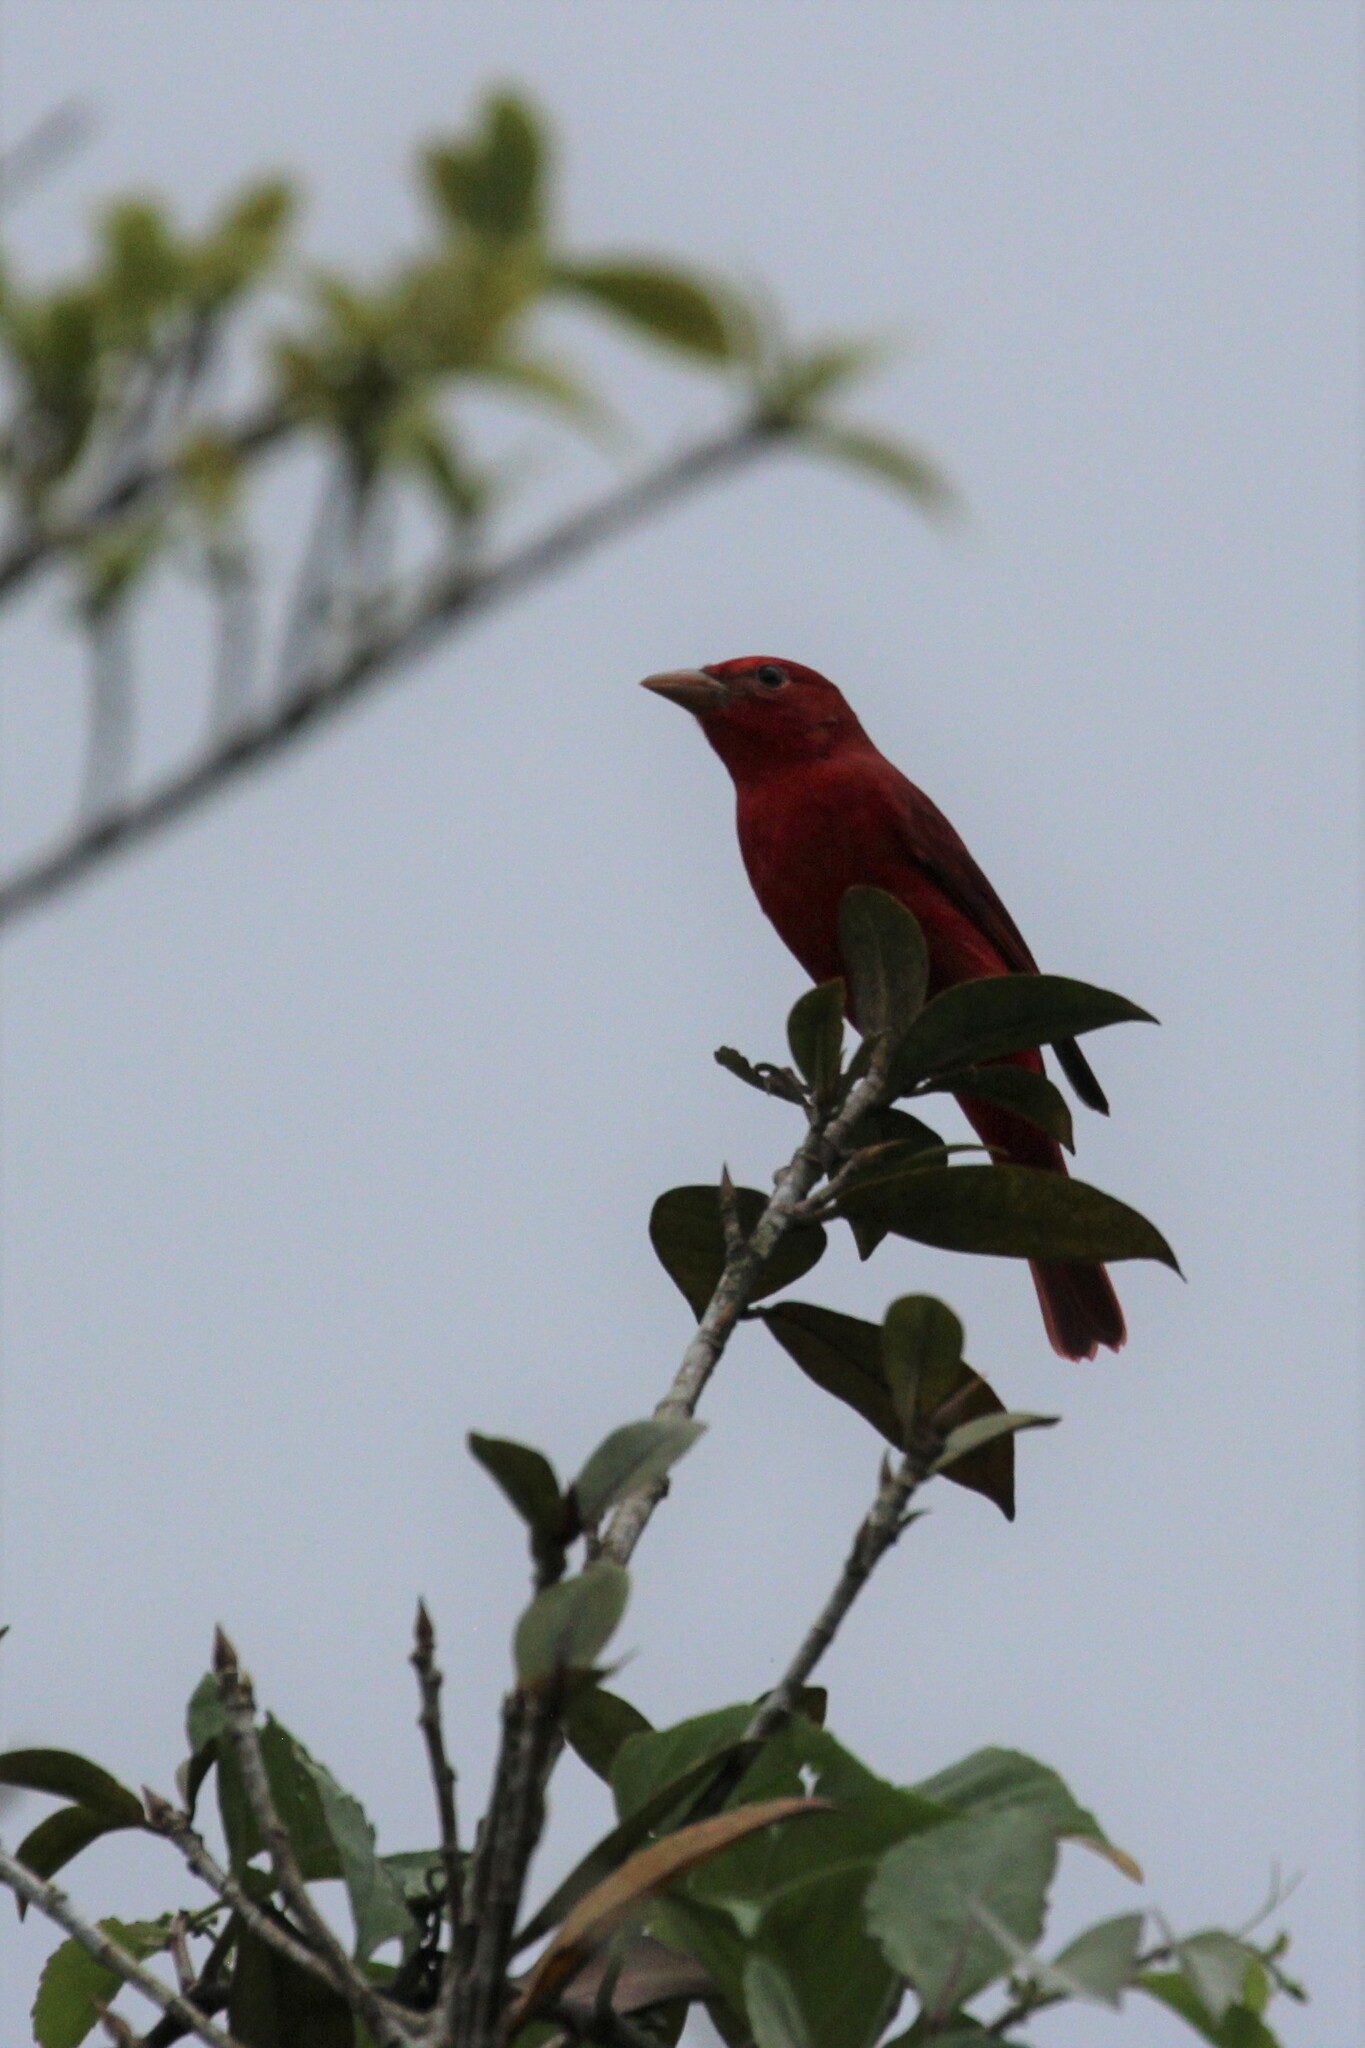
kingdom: Animalia
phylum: Chordata
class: Aves
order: Passeriformes
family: Cardinalidae
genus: Piranga
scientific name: Piranga rubra
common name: Summer tanager
